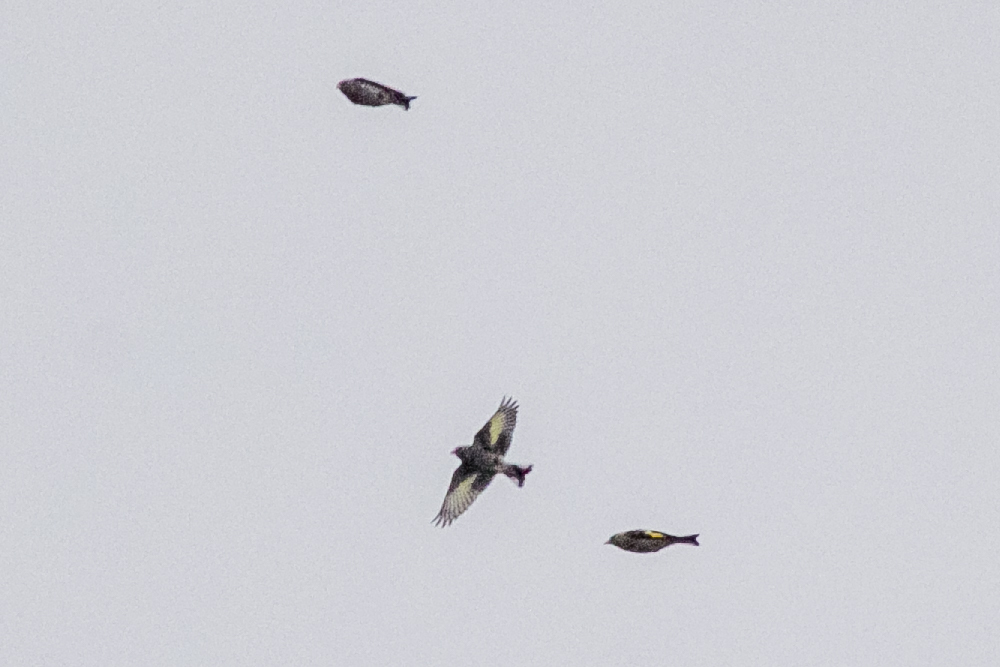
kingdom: Animalia
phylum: Chordata
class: Aves
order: Passeriformes
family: Fringillidae
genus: Carduelis
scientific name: Carduelis carduelis
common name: European goldfinch
